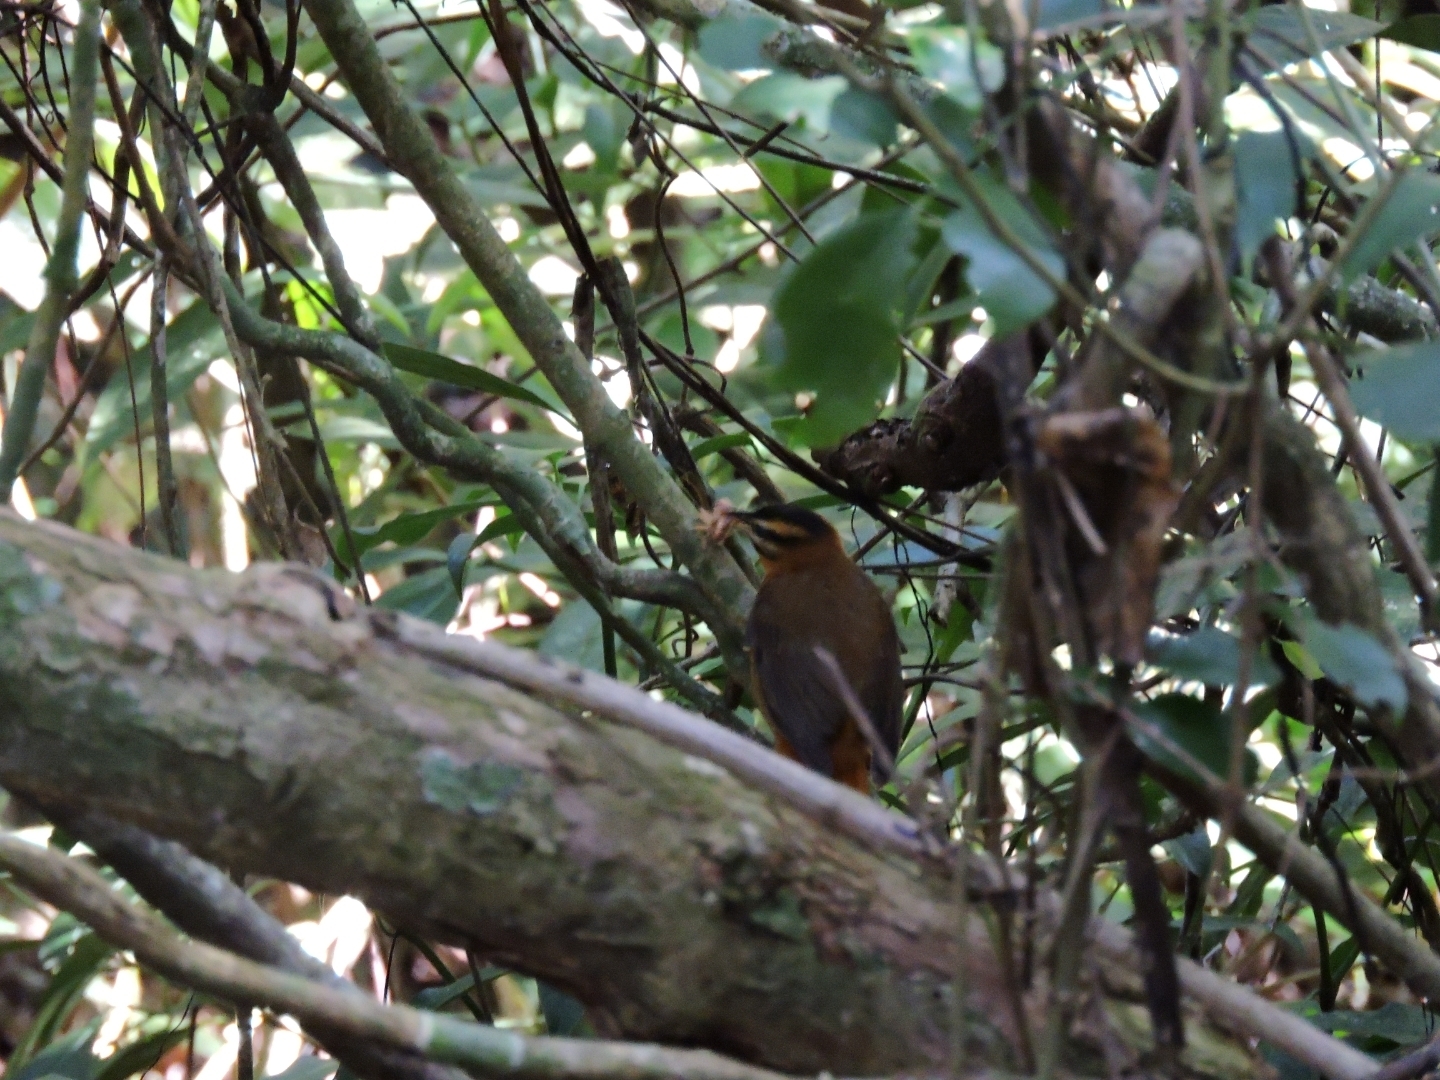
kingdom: Animalia
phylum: Chordata
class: Aves
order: Passeriformes
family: Furnariidae
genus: Philydor
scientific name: Philydor atricapillus
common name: Black-capped foliage-gleaner
